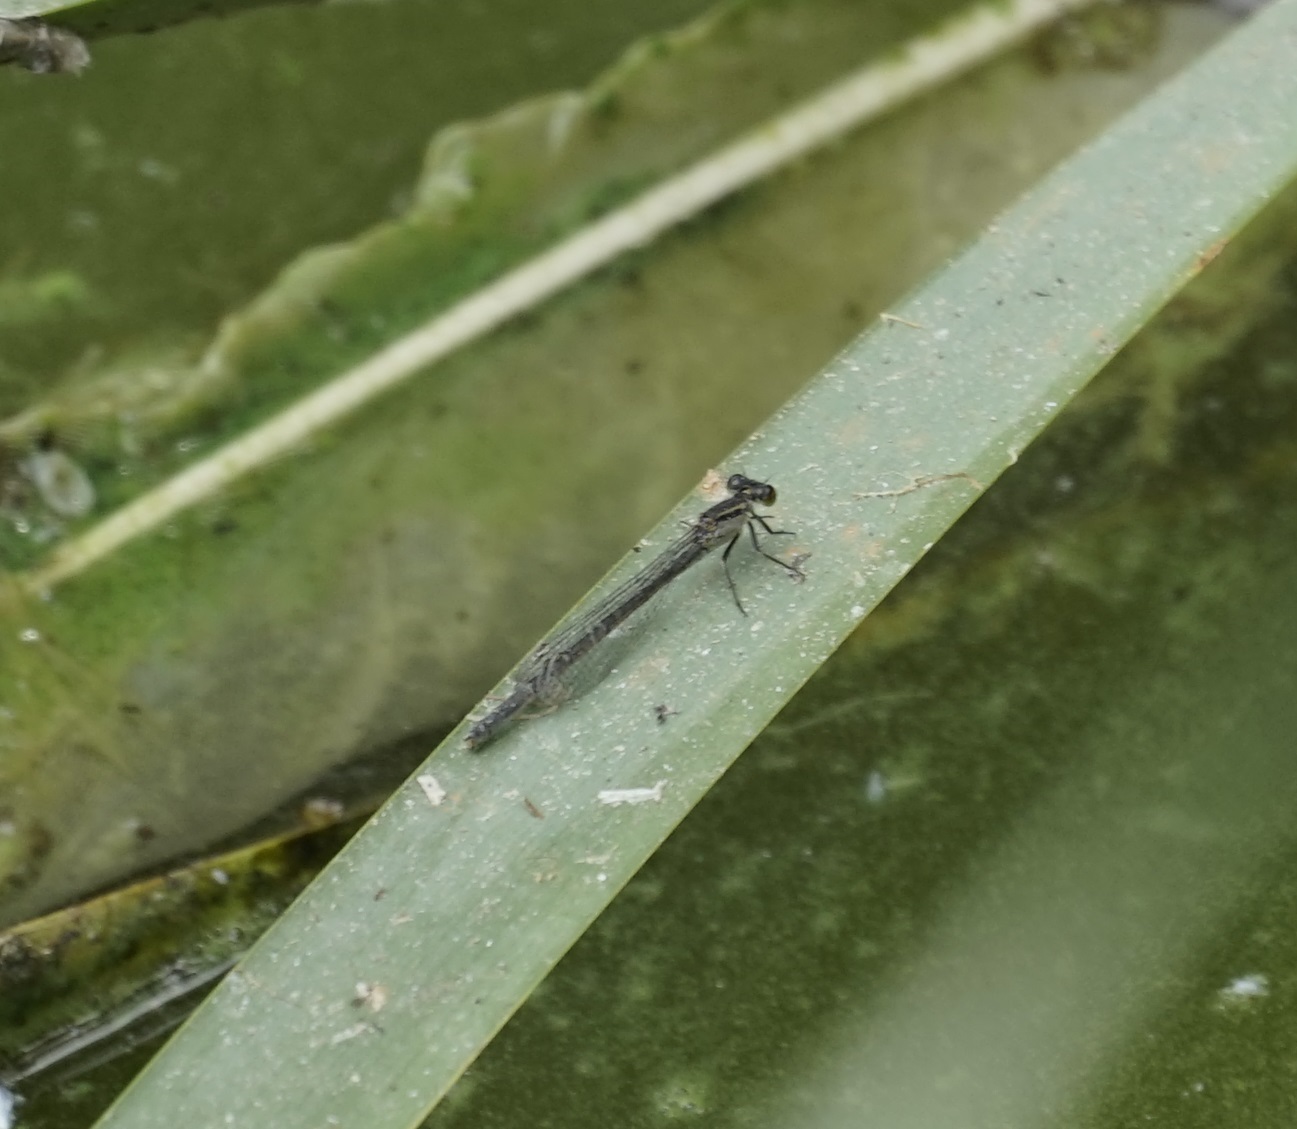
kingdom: Animalia
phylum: Arthropoda
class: Insecta
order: Odonata
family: Coenagrionidae
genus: Ischnura
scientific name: Ischnura heterosticta
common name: Common bluetail
